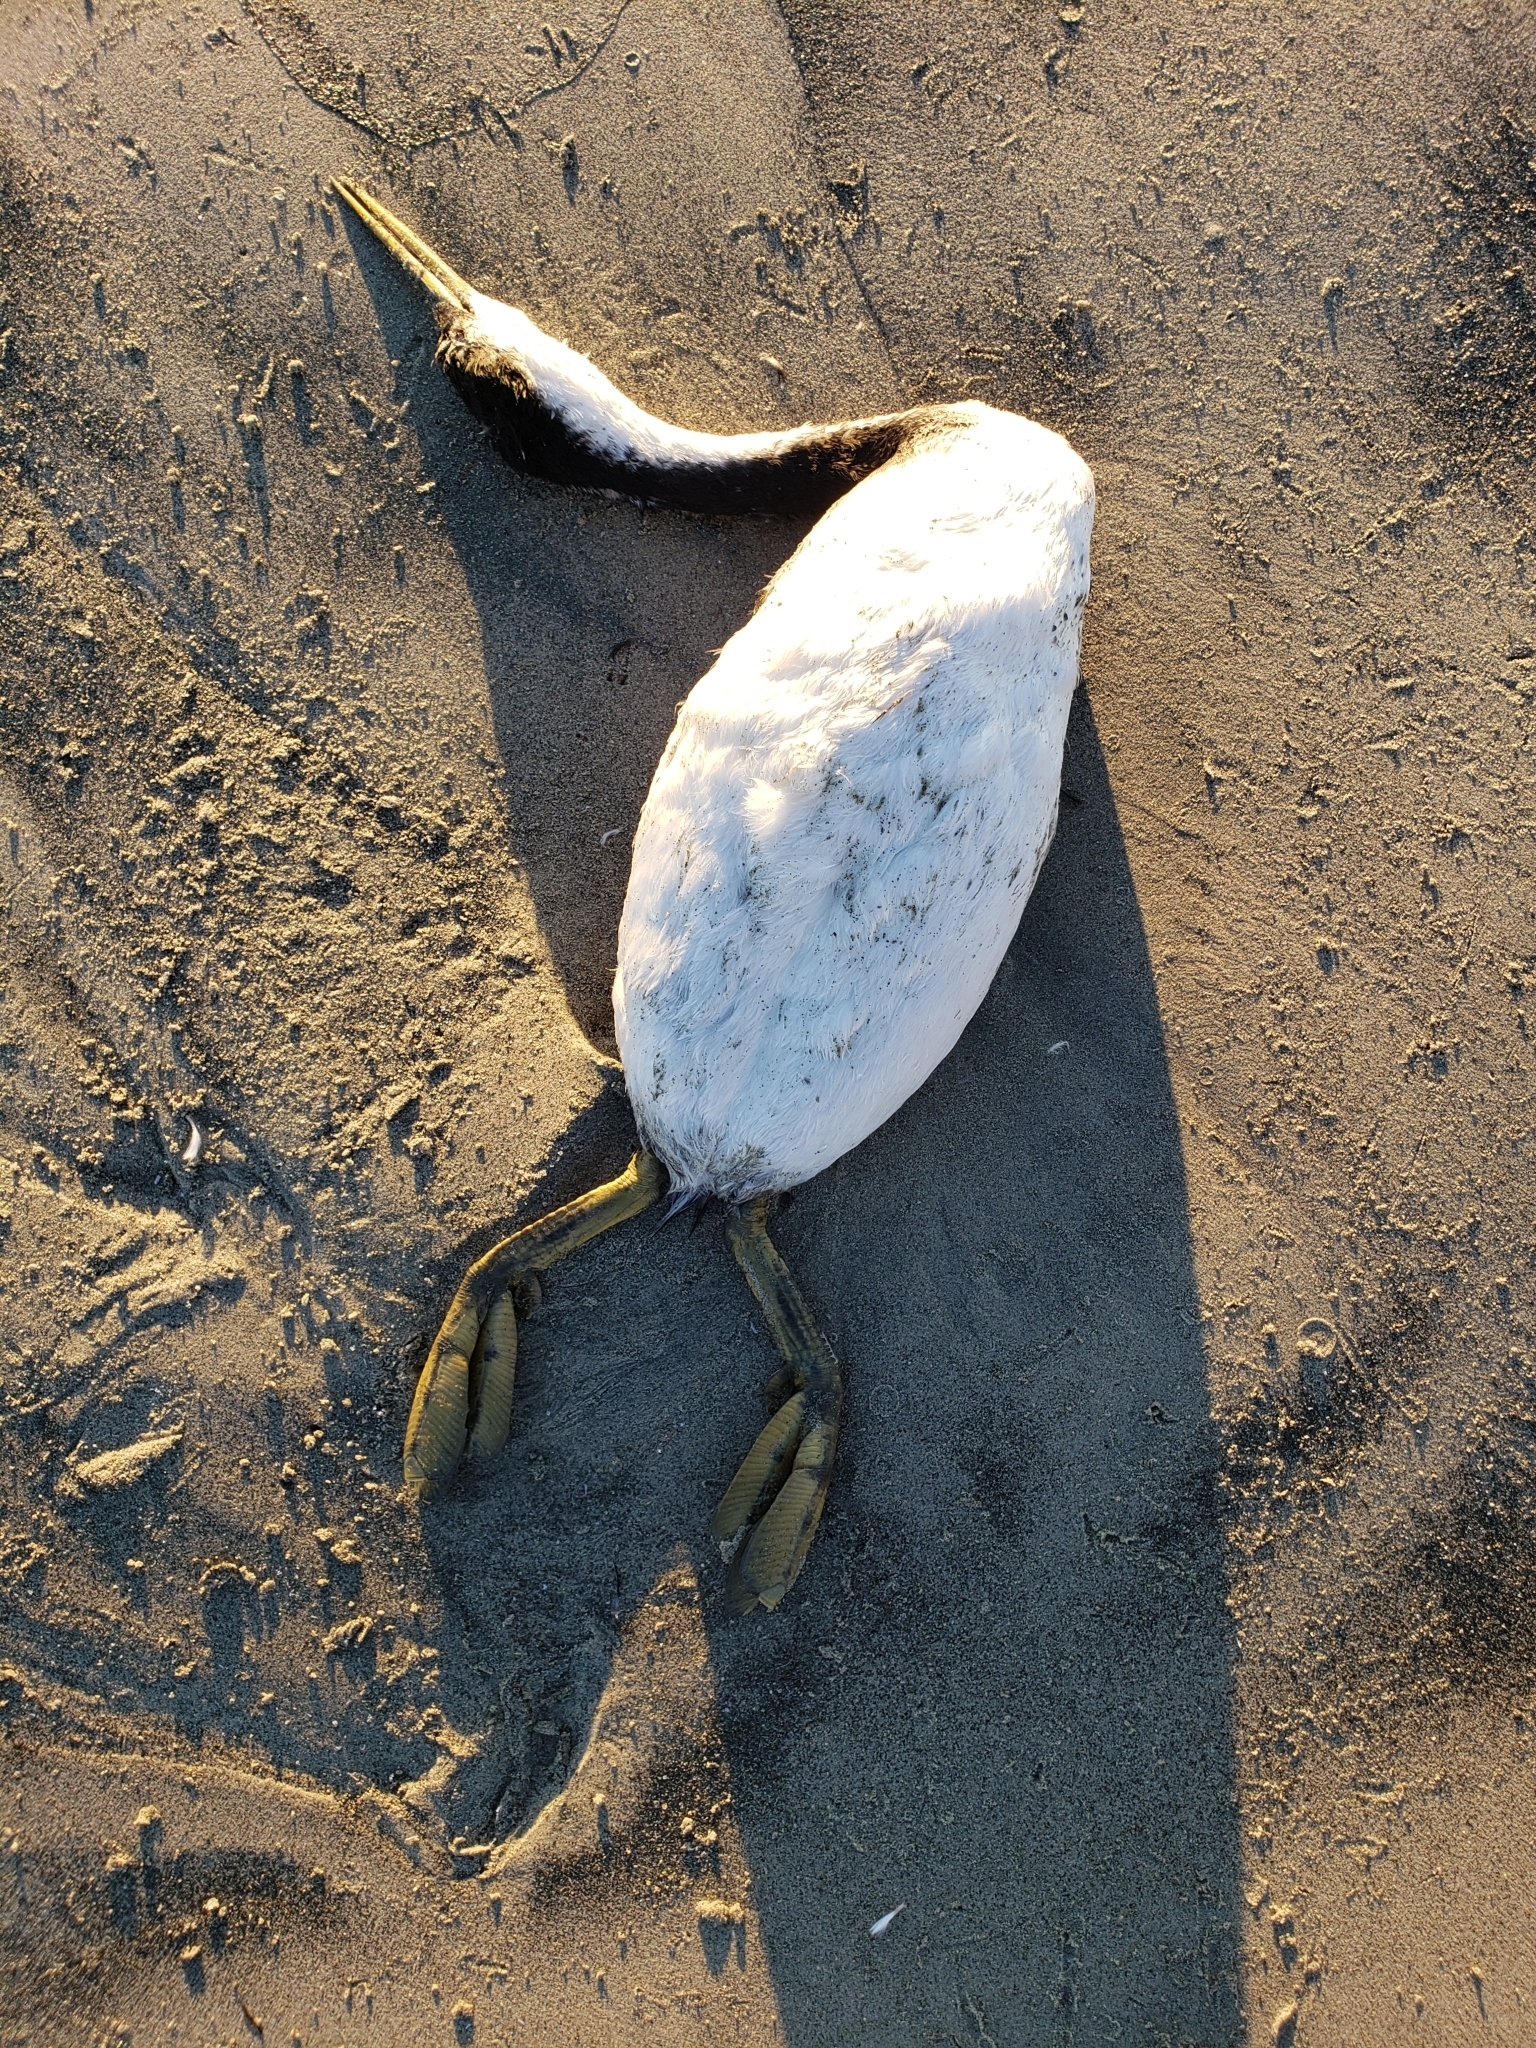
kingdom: Animalia
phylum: Chordata
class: Aves
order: Podicipediformes
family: Podicipedidae
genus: Aechmophorus
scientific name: Aechmophorus occidentalis
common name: Western grebe
